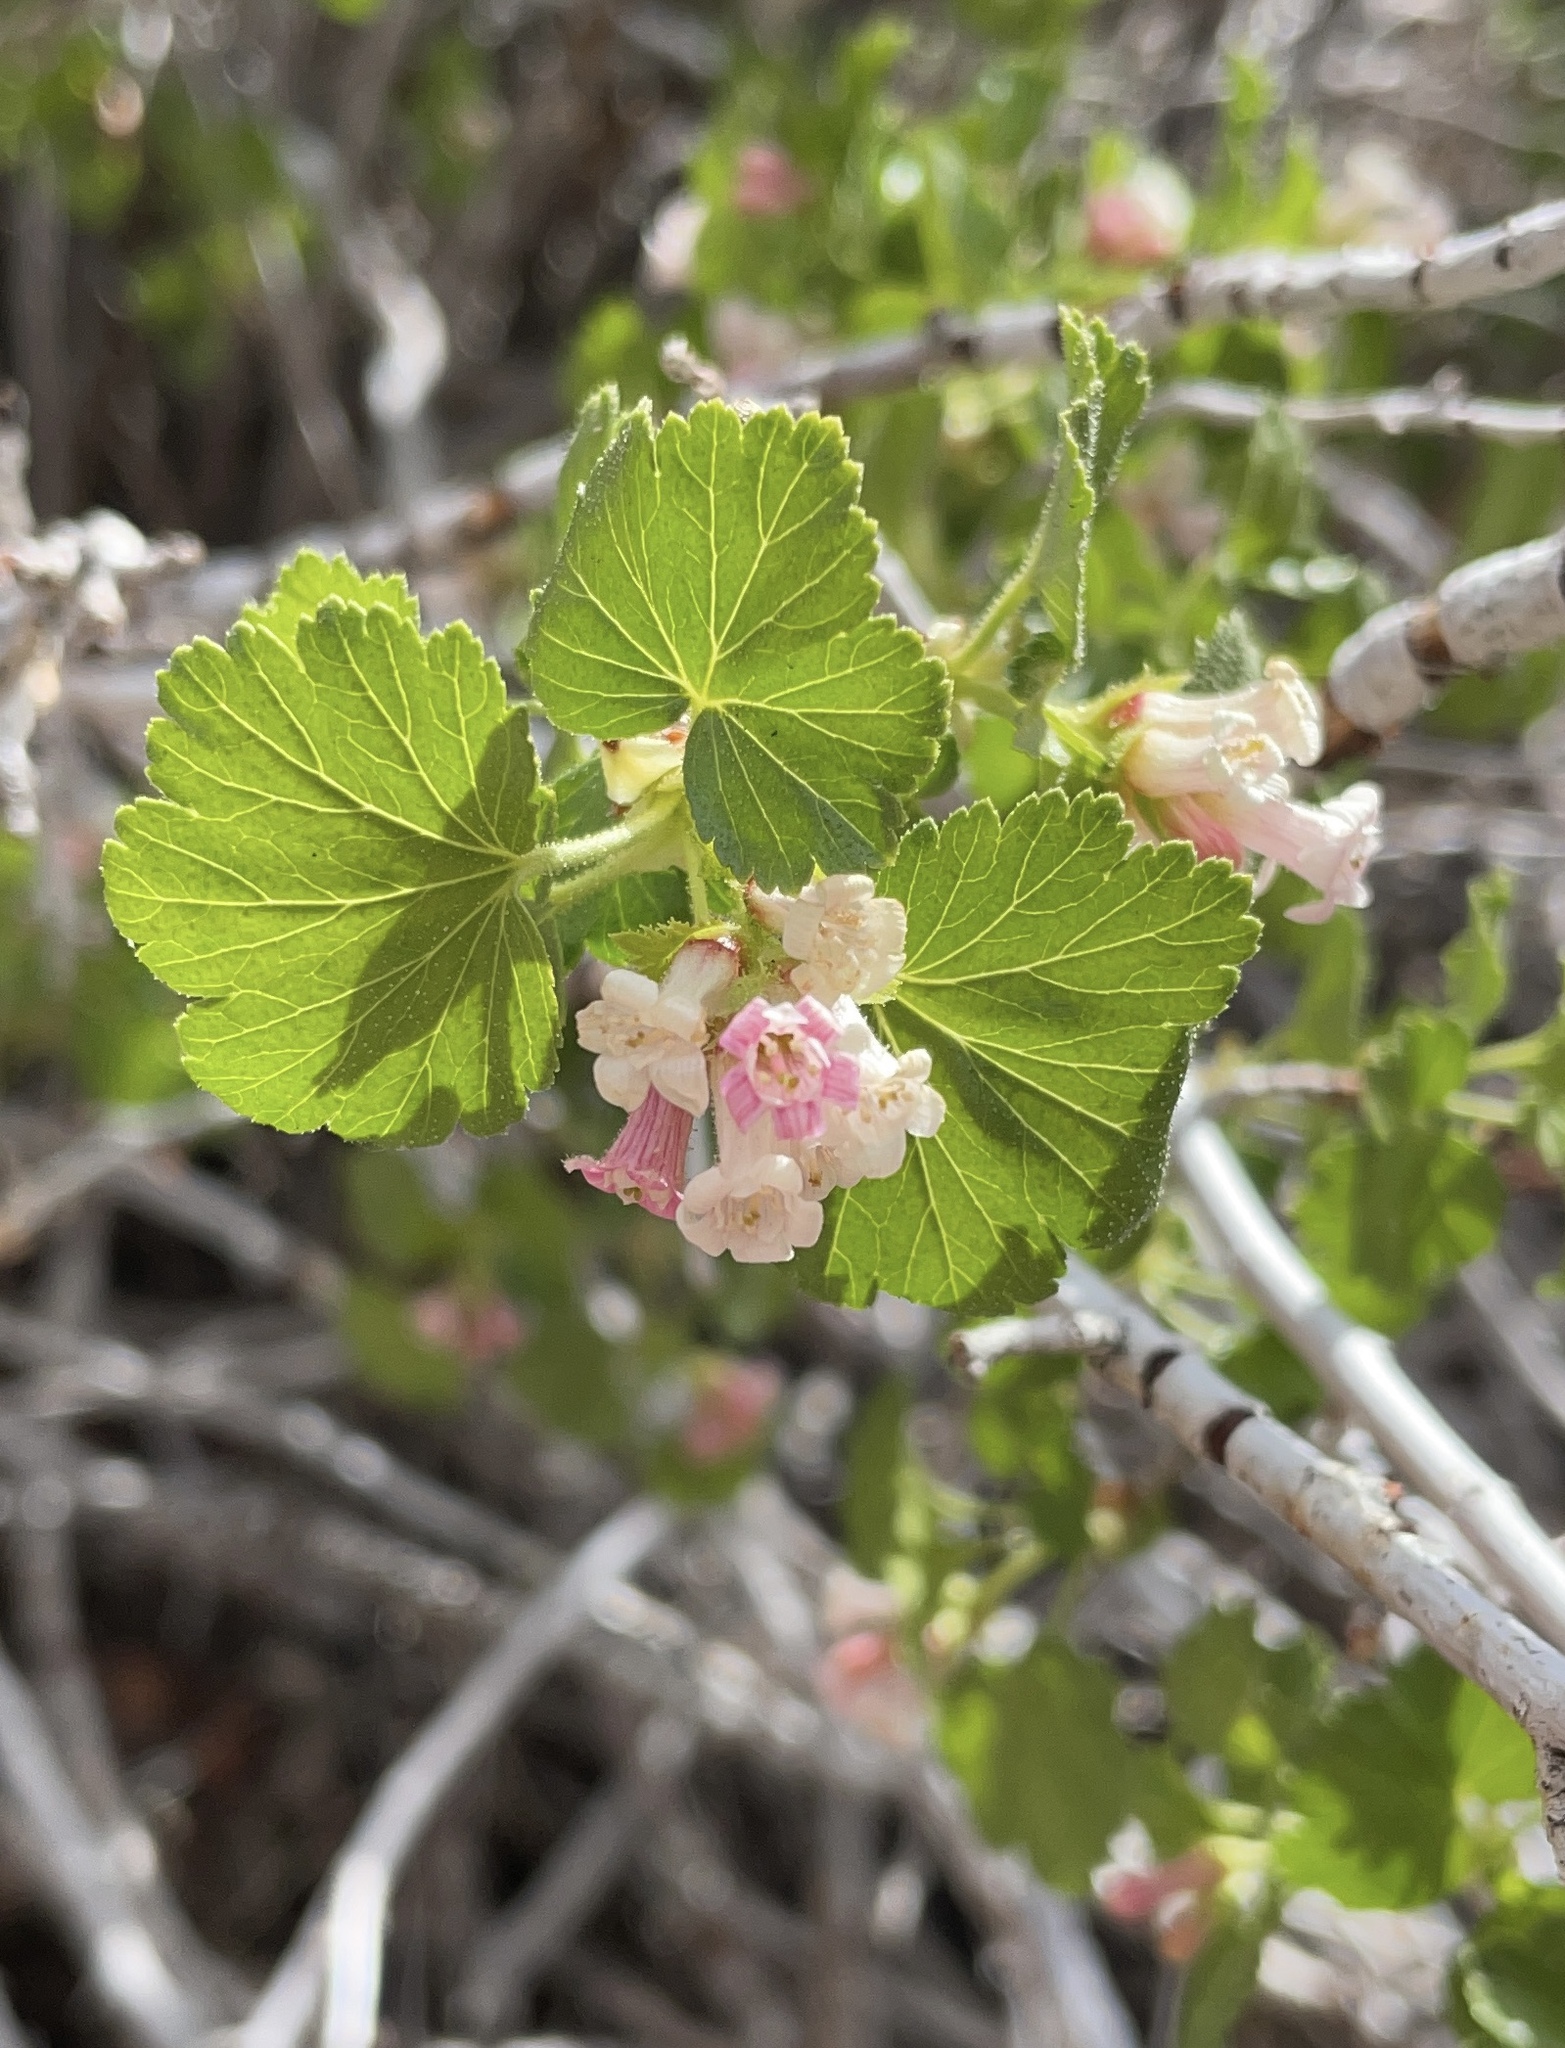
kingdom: Plantae
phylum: Tracheophyta
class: Magnoliopsida
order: Saxifragales
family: Grossulariaceae
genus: Ribes
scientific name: Ribes cereum
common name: Wax currant
